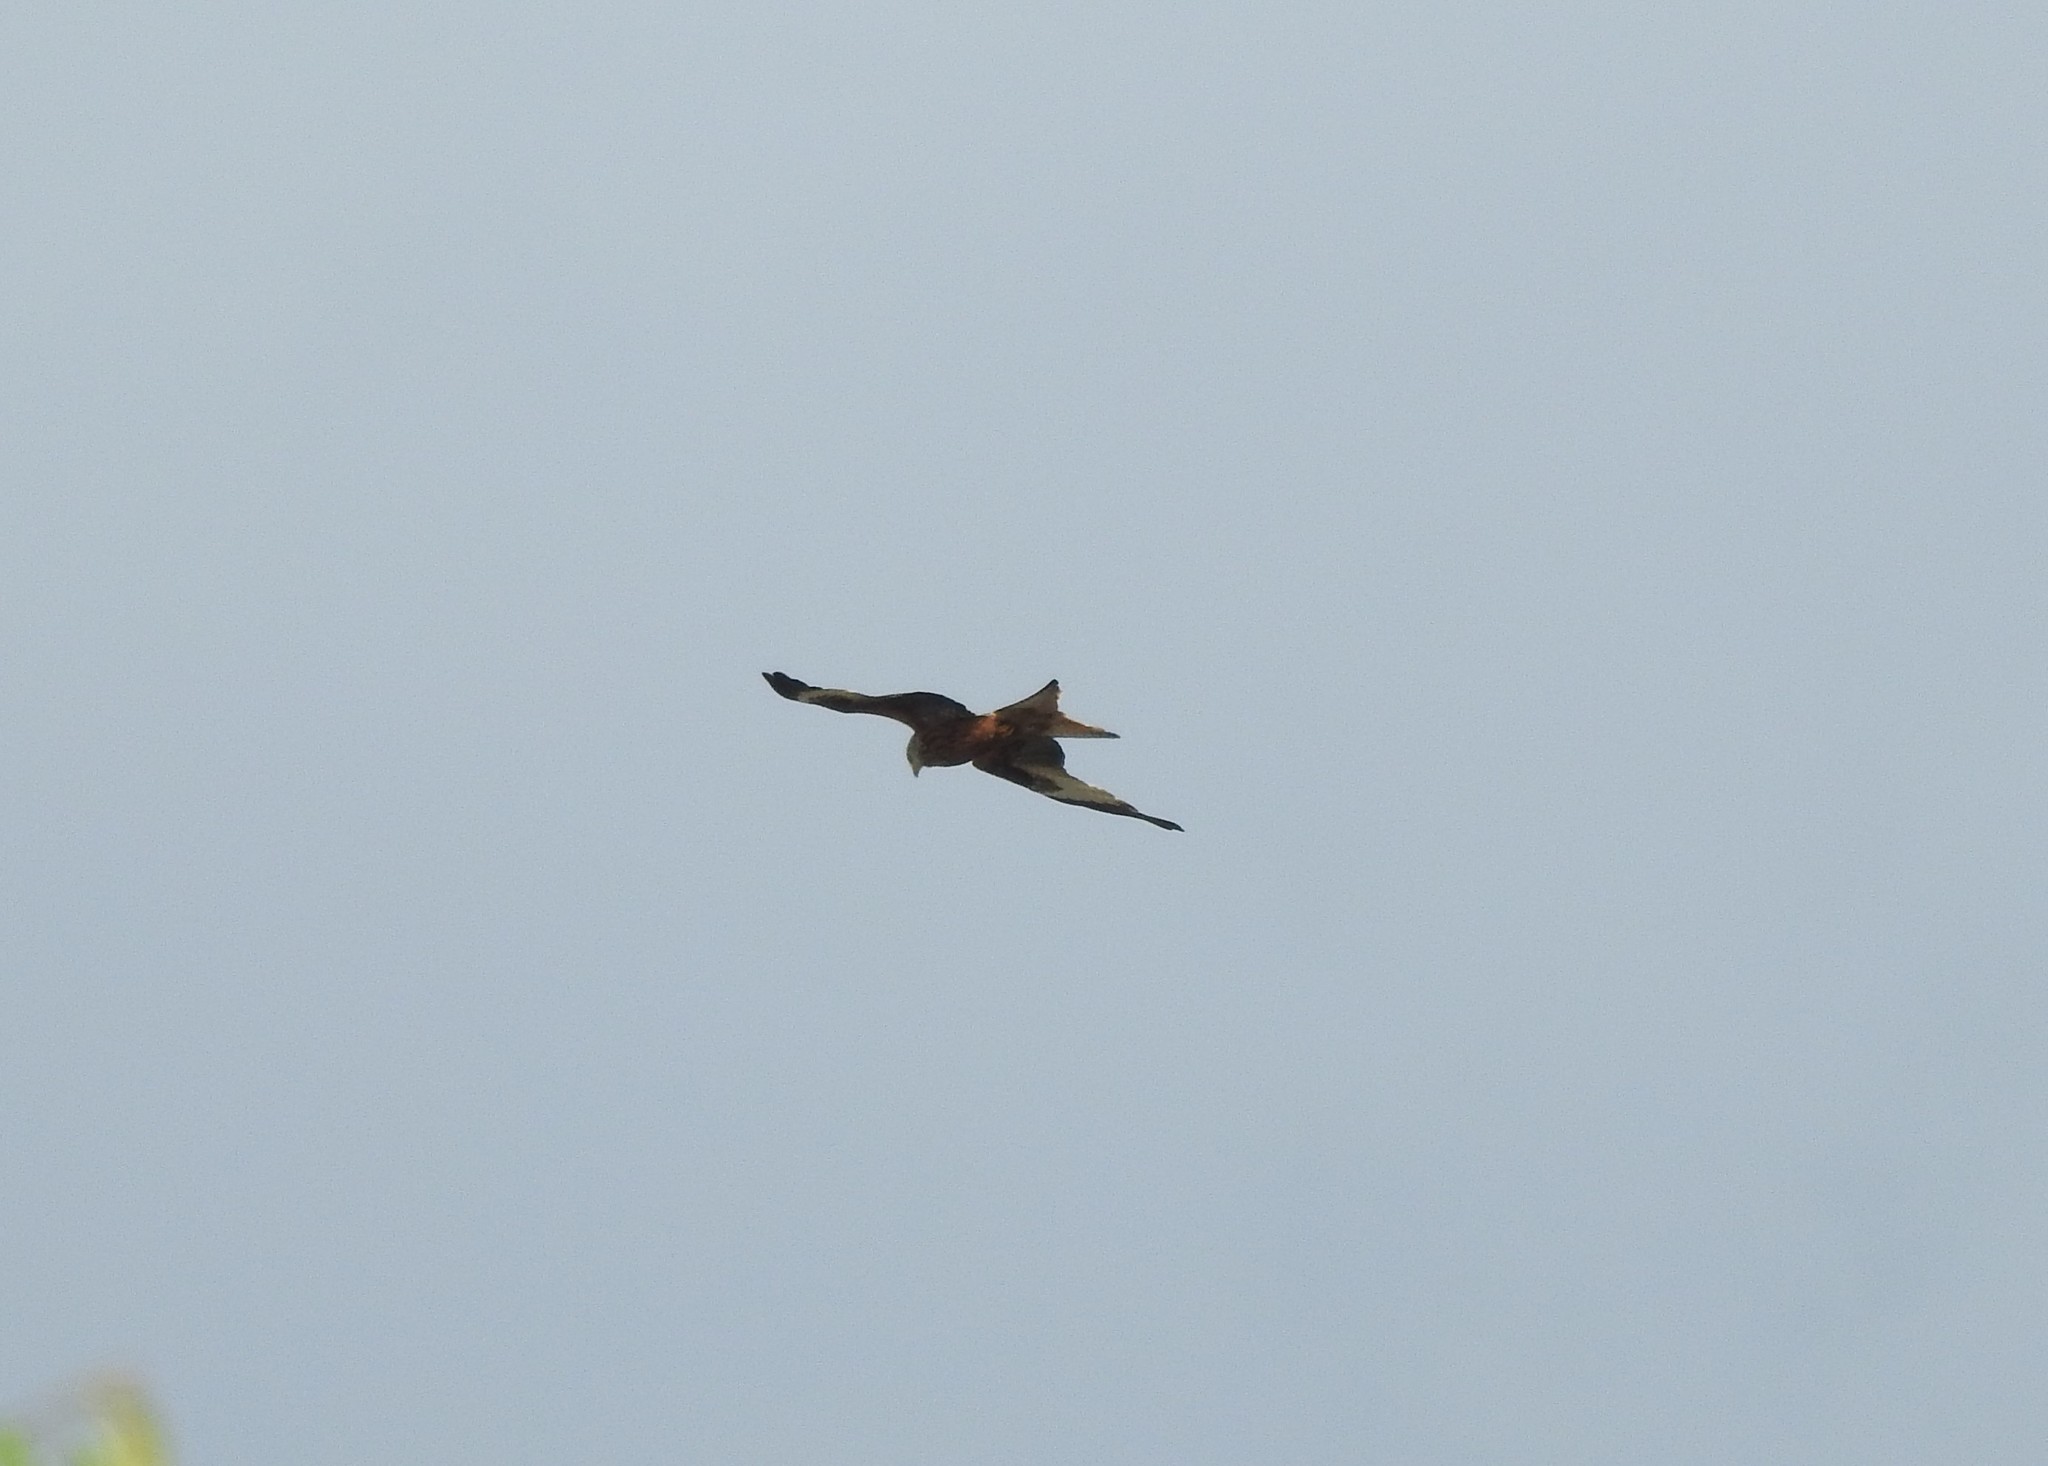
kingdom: Animalia
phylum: Chordata
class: Aves
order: Accipitriformes
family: Accipitridae
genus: Milvus
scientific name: Milvus milvus
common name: Red kite
